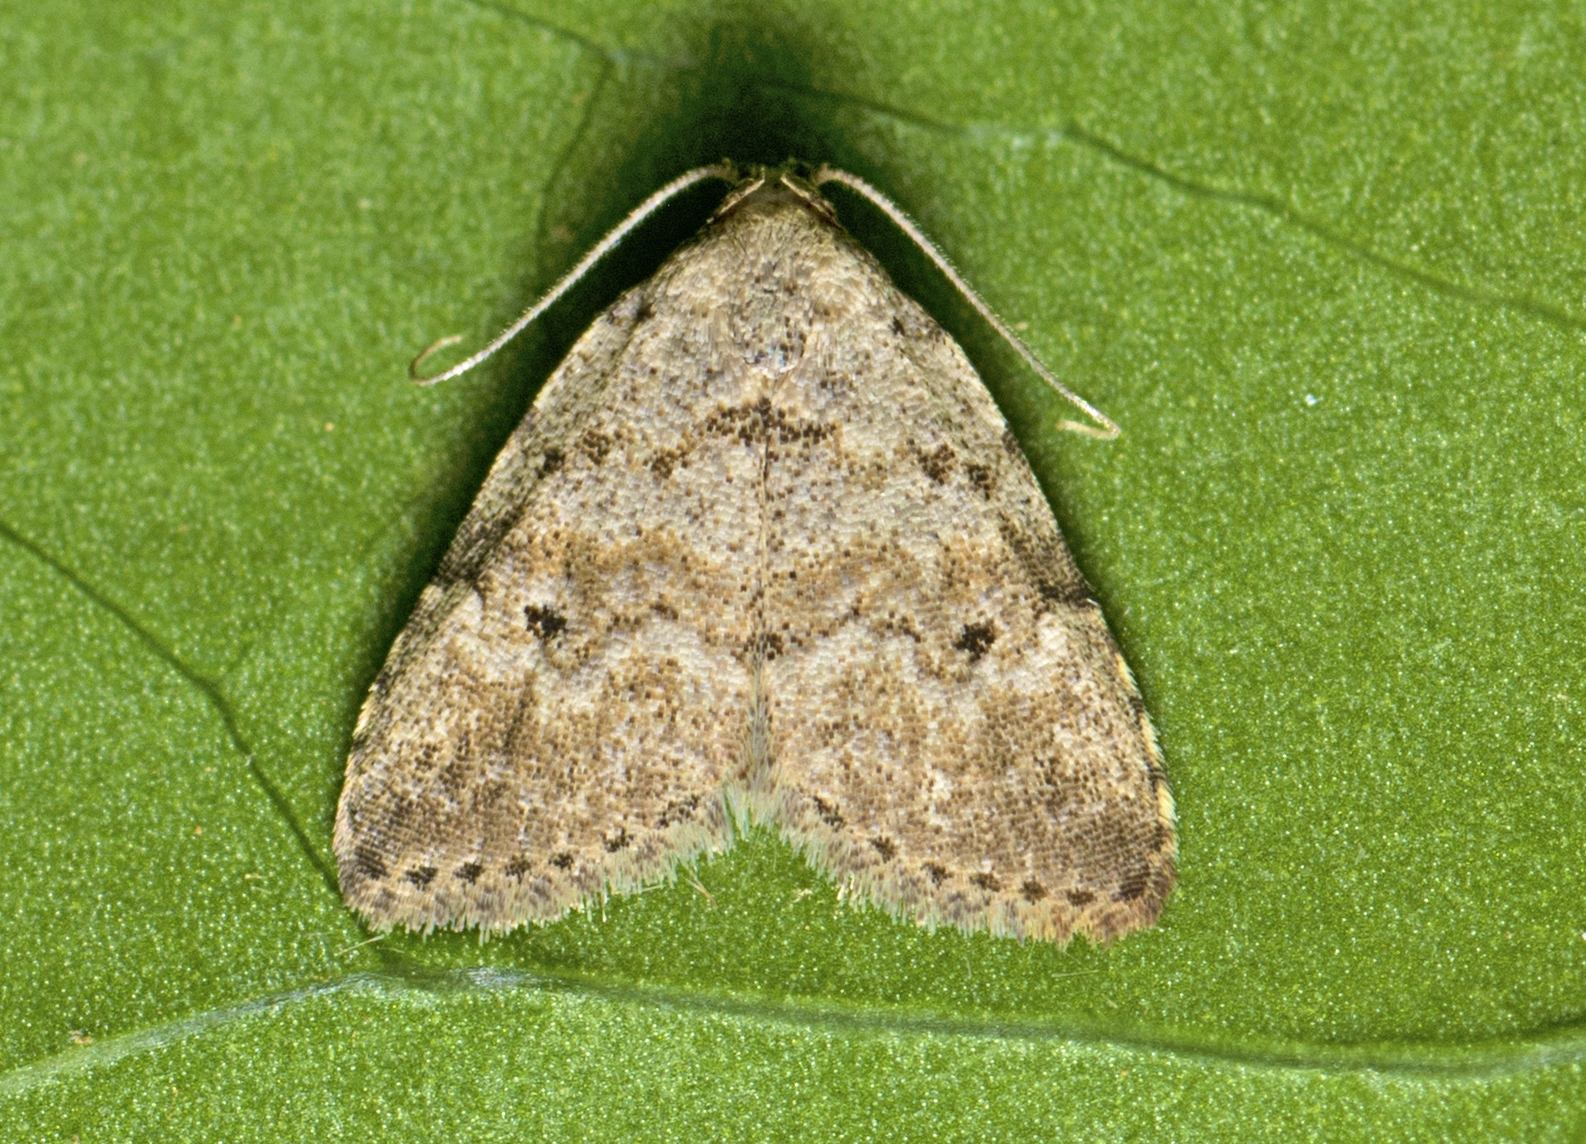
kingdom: Animalia
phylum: Arthropoda
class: Insecta
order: Lepidoptera
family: Erebidae
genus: Magna
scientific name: Magna myops
